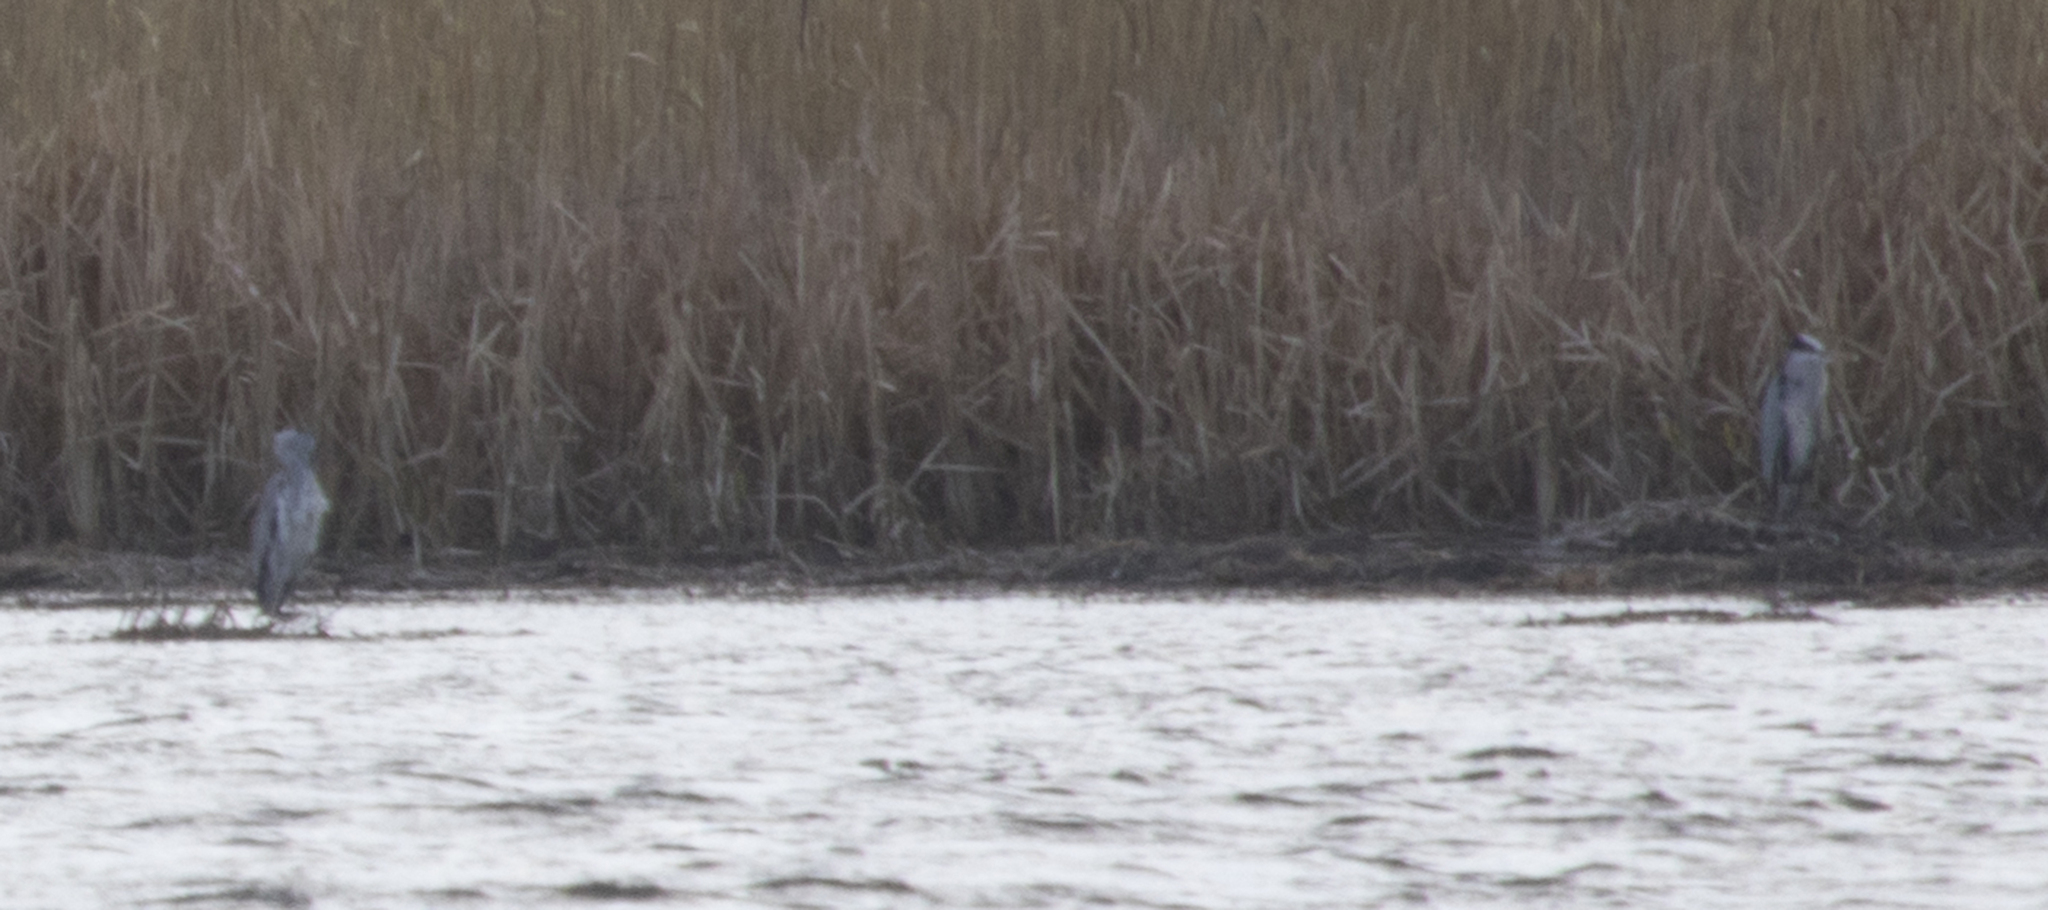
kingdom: Animalia
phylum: Chordata
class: Aves
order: Pelecaniformes
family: Ardeidae
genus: Ardea
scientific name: Ardea cinerea
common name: Grey heron
